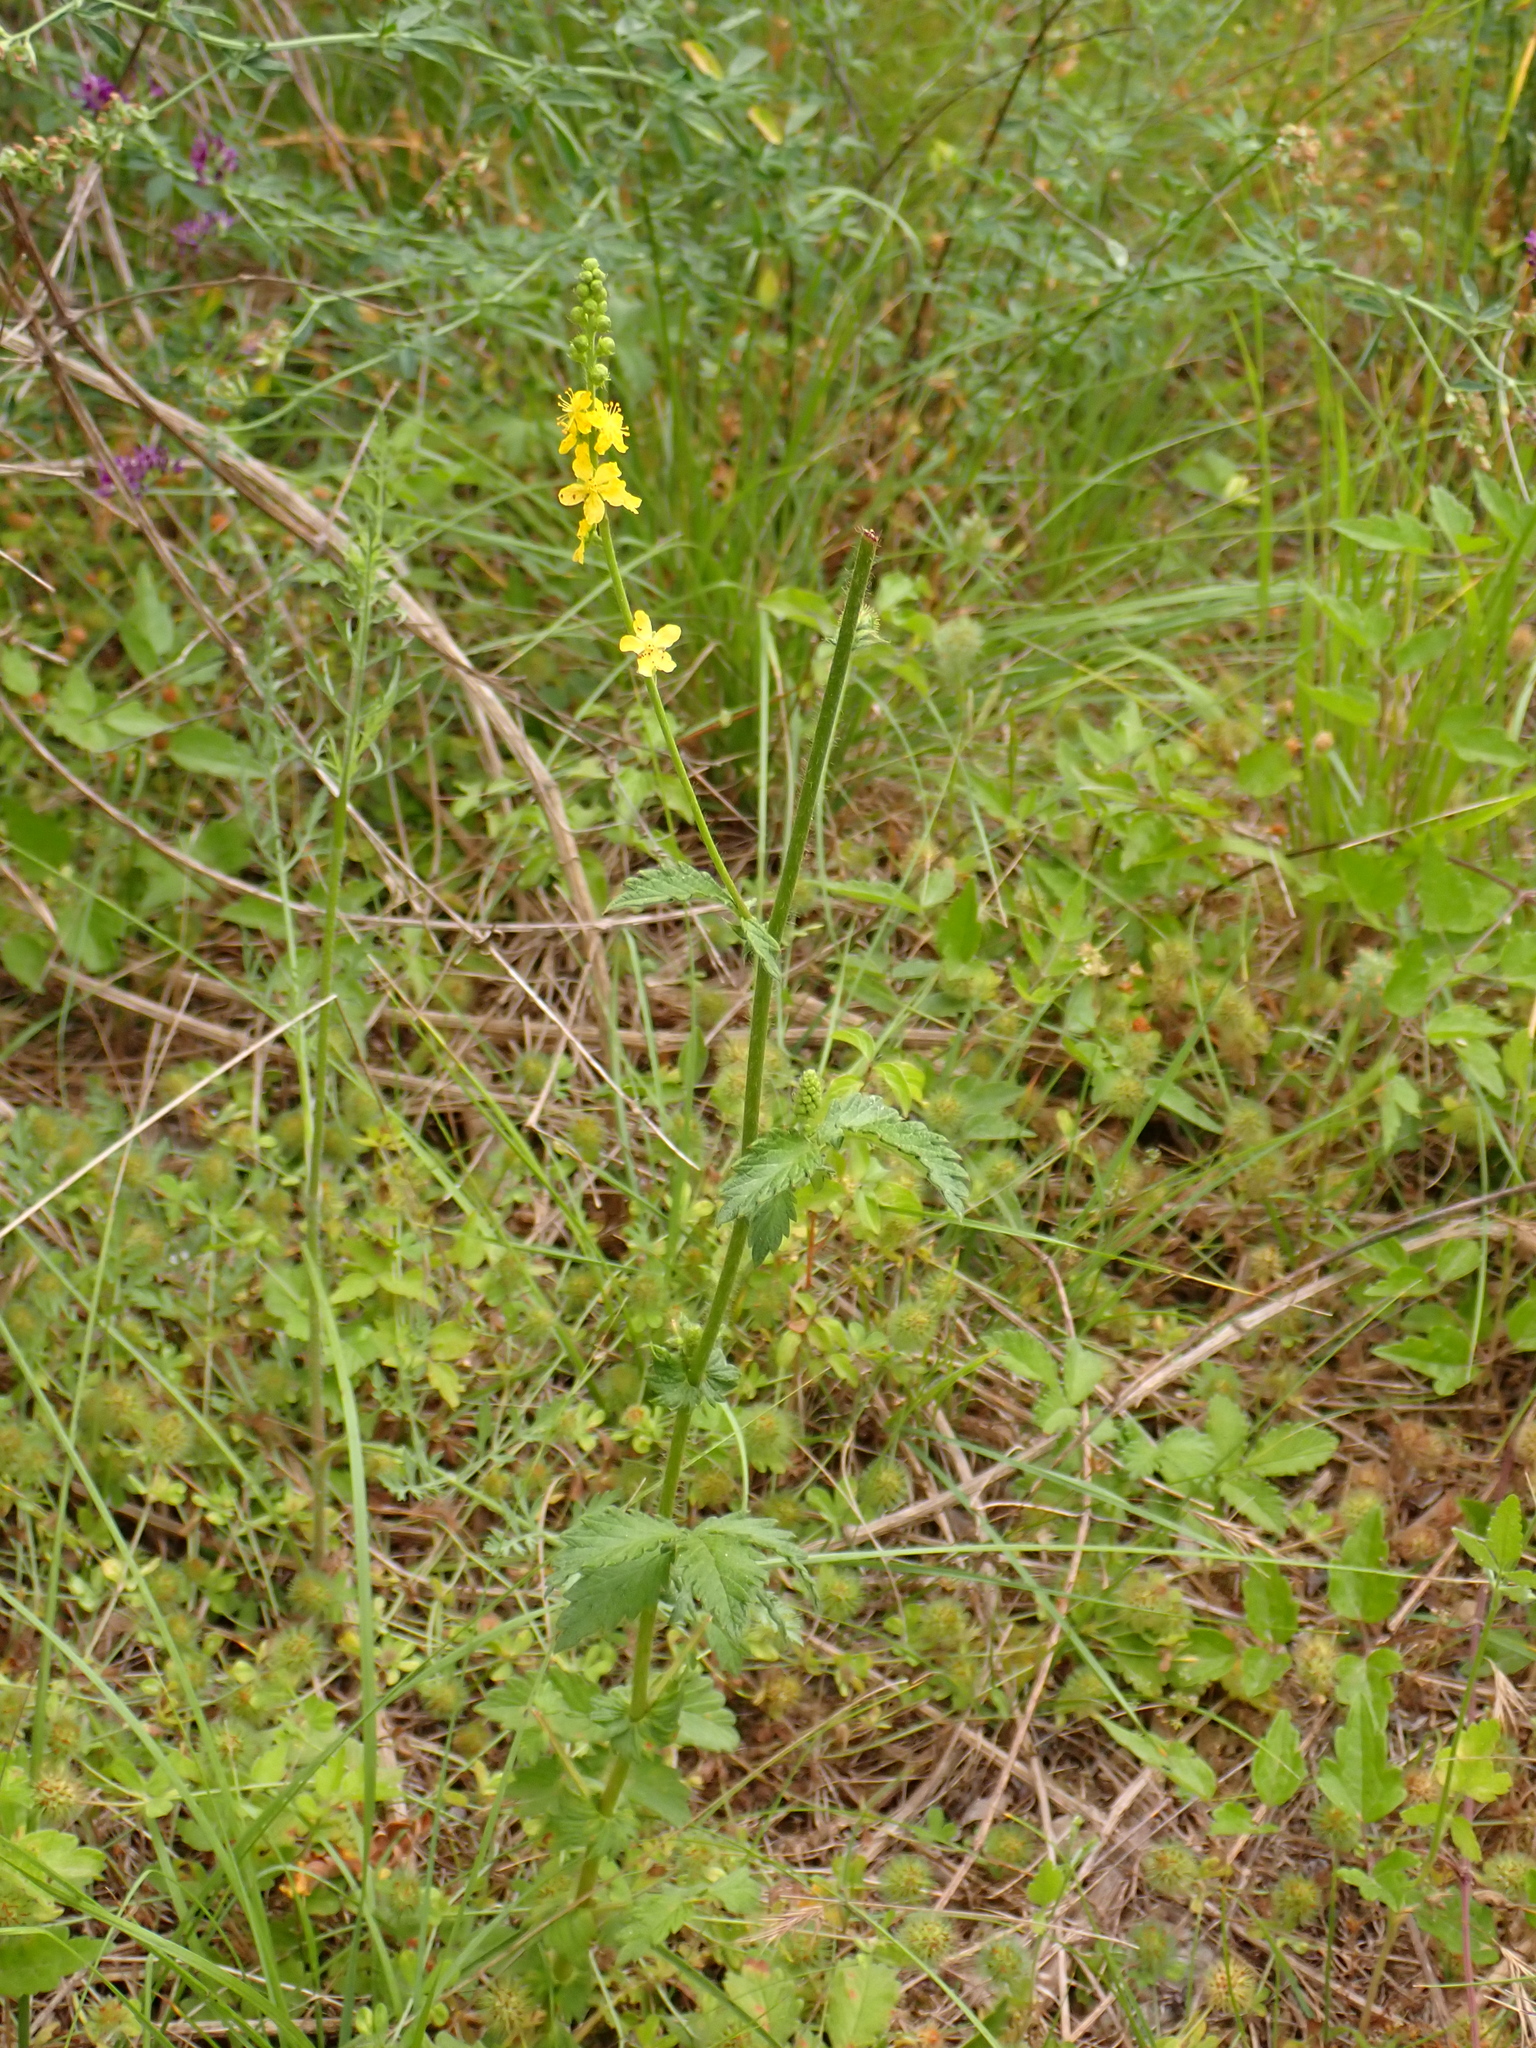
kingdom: Plantae
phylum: Tracheophyta
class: Magnoliopsida
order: Rosales
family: Rosaceae
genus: Agrimonia
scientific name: Agrimonia eupatoria
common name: Agrimony
